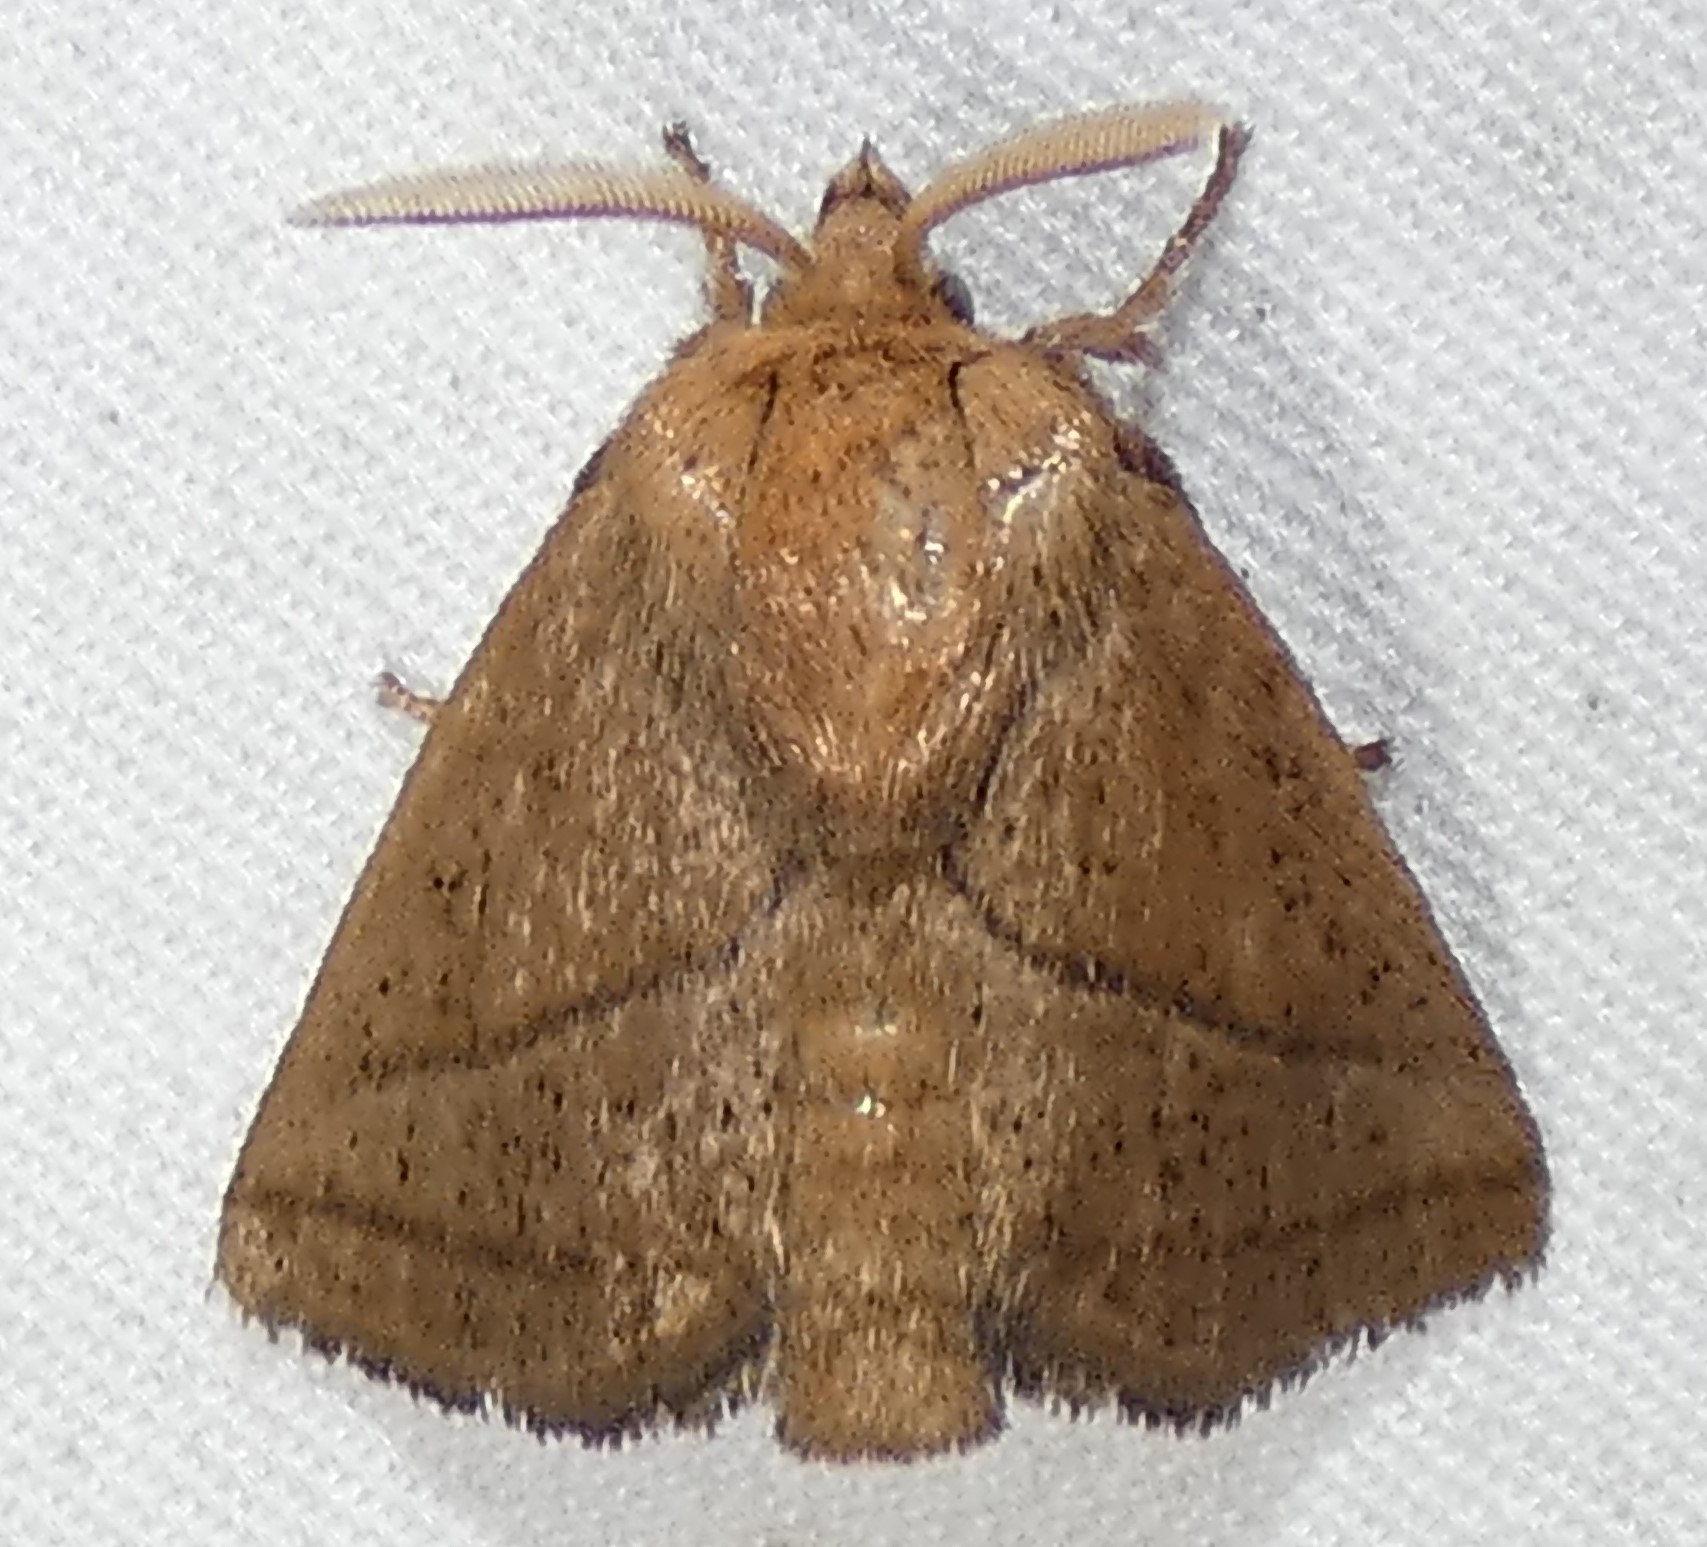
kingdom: Animalia
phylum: Arthropoda
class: Insecta
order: Lepidoptera
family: Limacodidae
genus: Natada
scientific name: Natada nasoni
